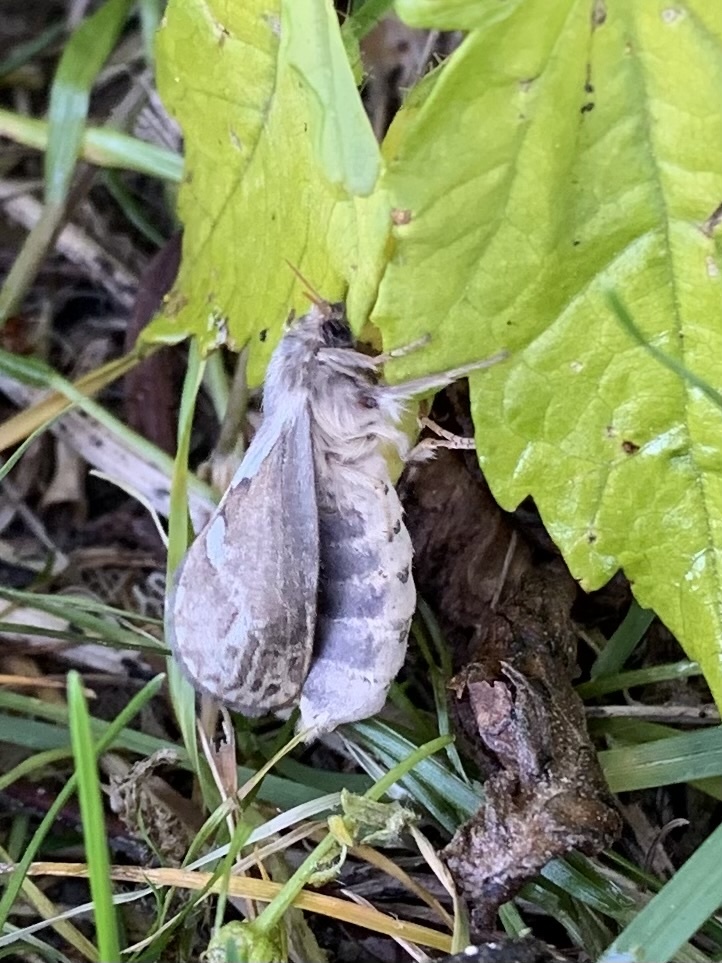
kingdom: Animalia
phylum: Arthropoda
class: Insecta
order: Lepidoptera
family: Hepialidae
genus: Korscheltellus
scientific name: Korscheltellus lupulina
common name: Common swift
